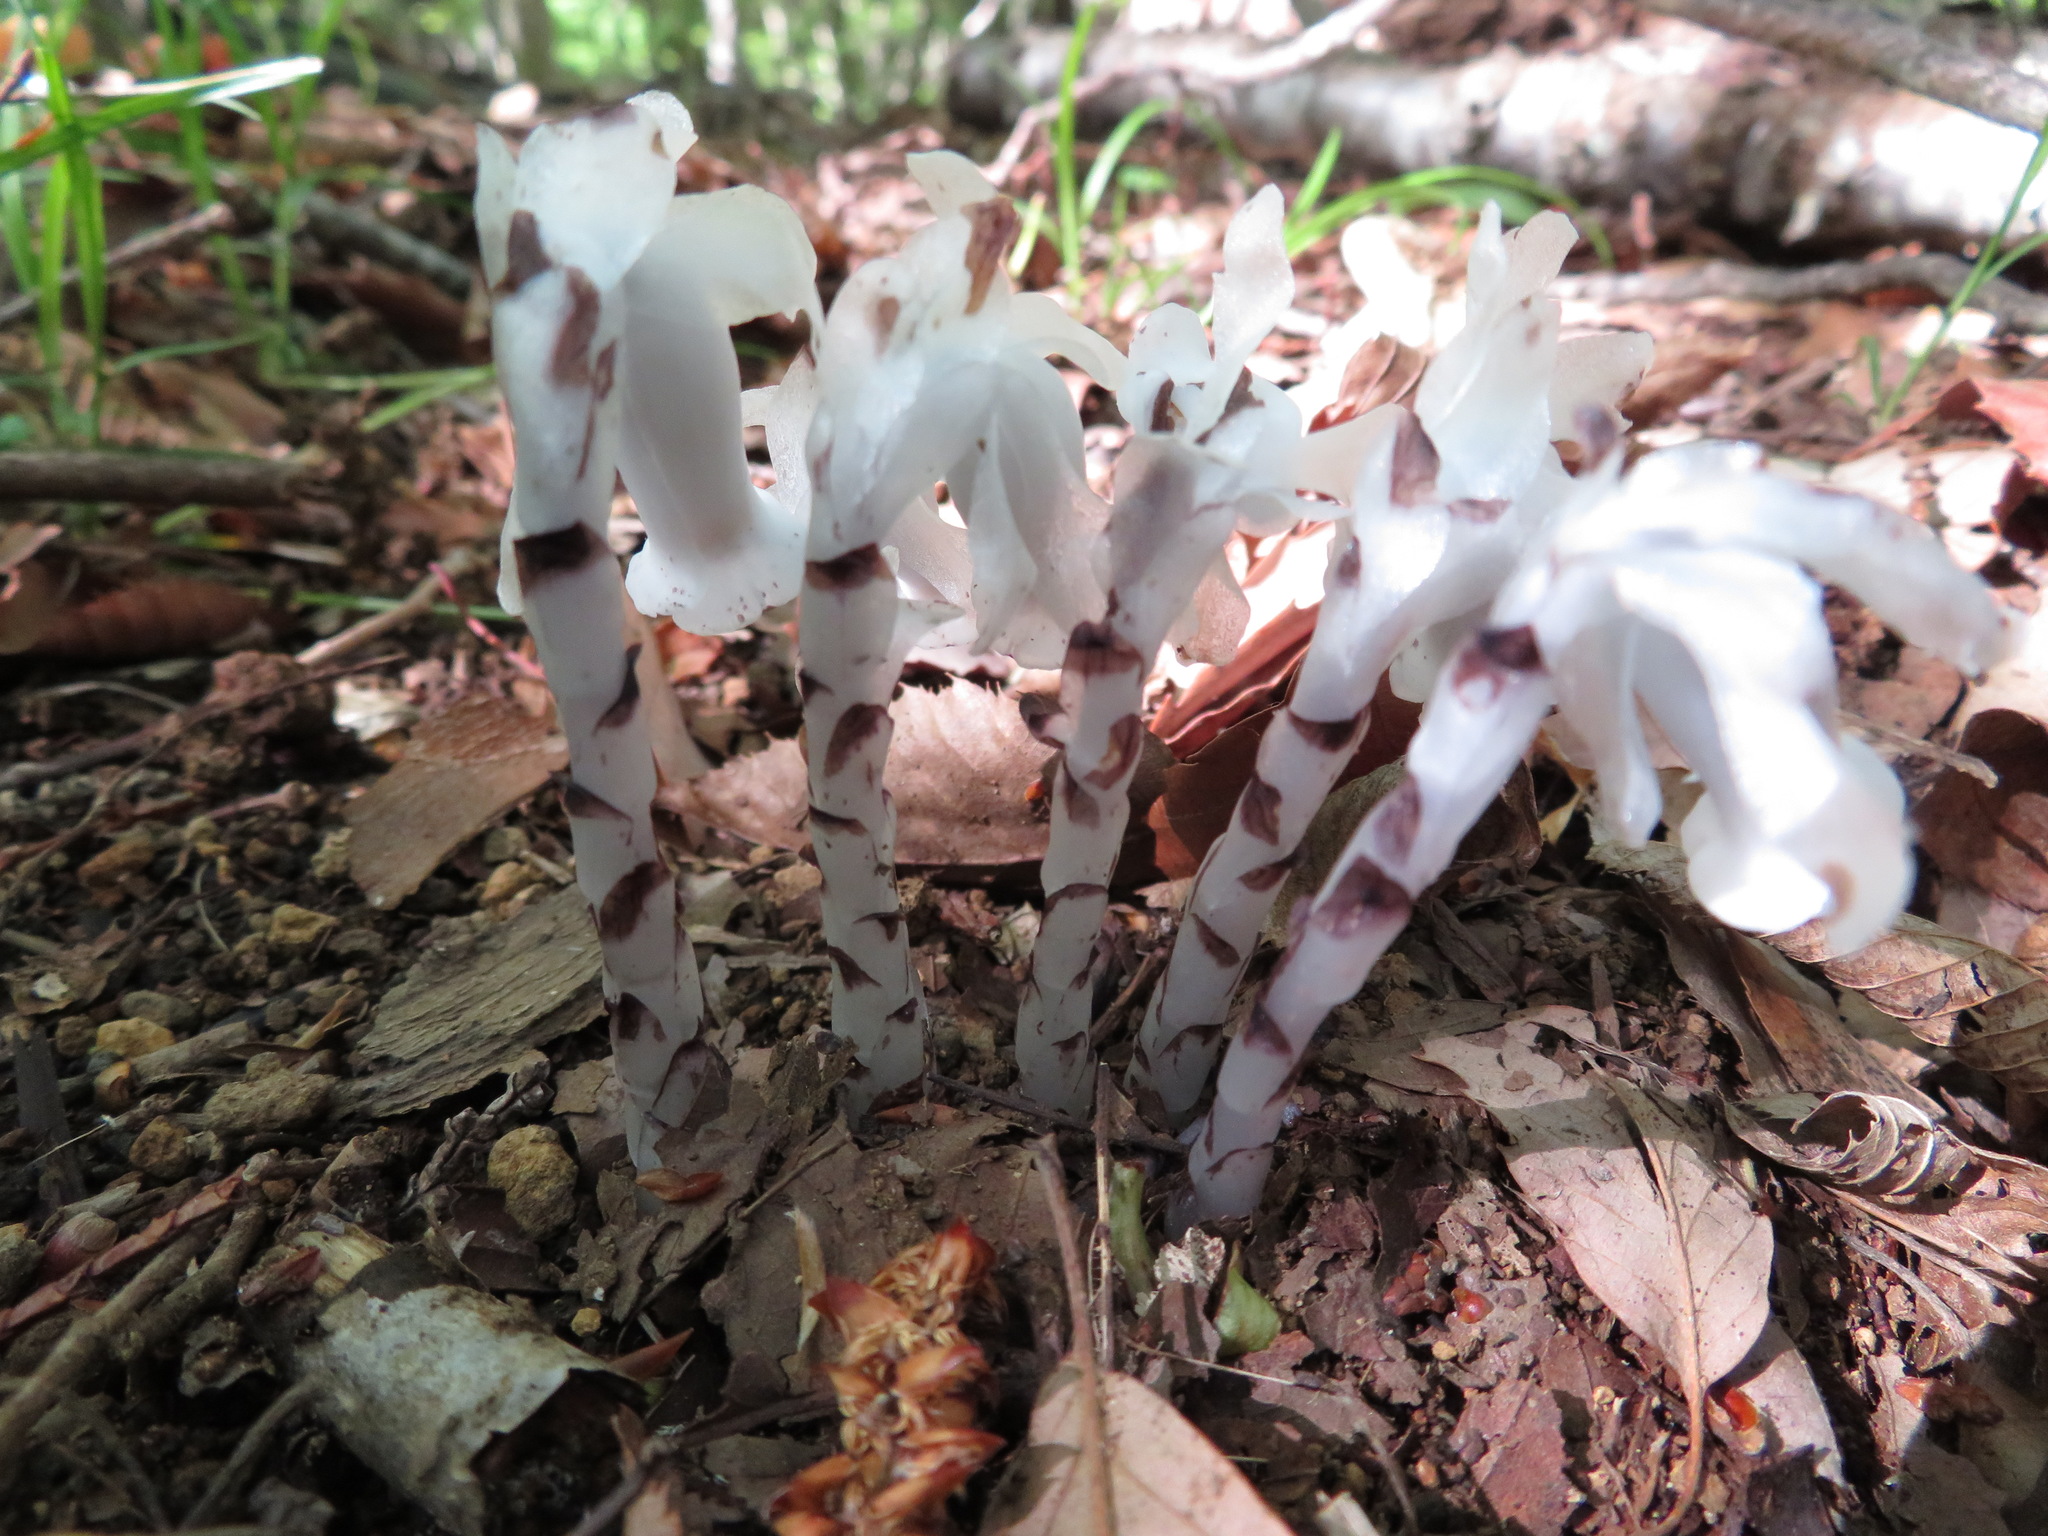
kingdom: Plantae
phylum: Tracheophyta
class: Magnoliopsida
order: Ericales
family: Ericaceae
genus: Monotropastrum
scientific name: Monotropastrum humile
